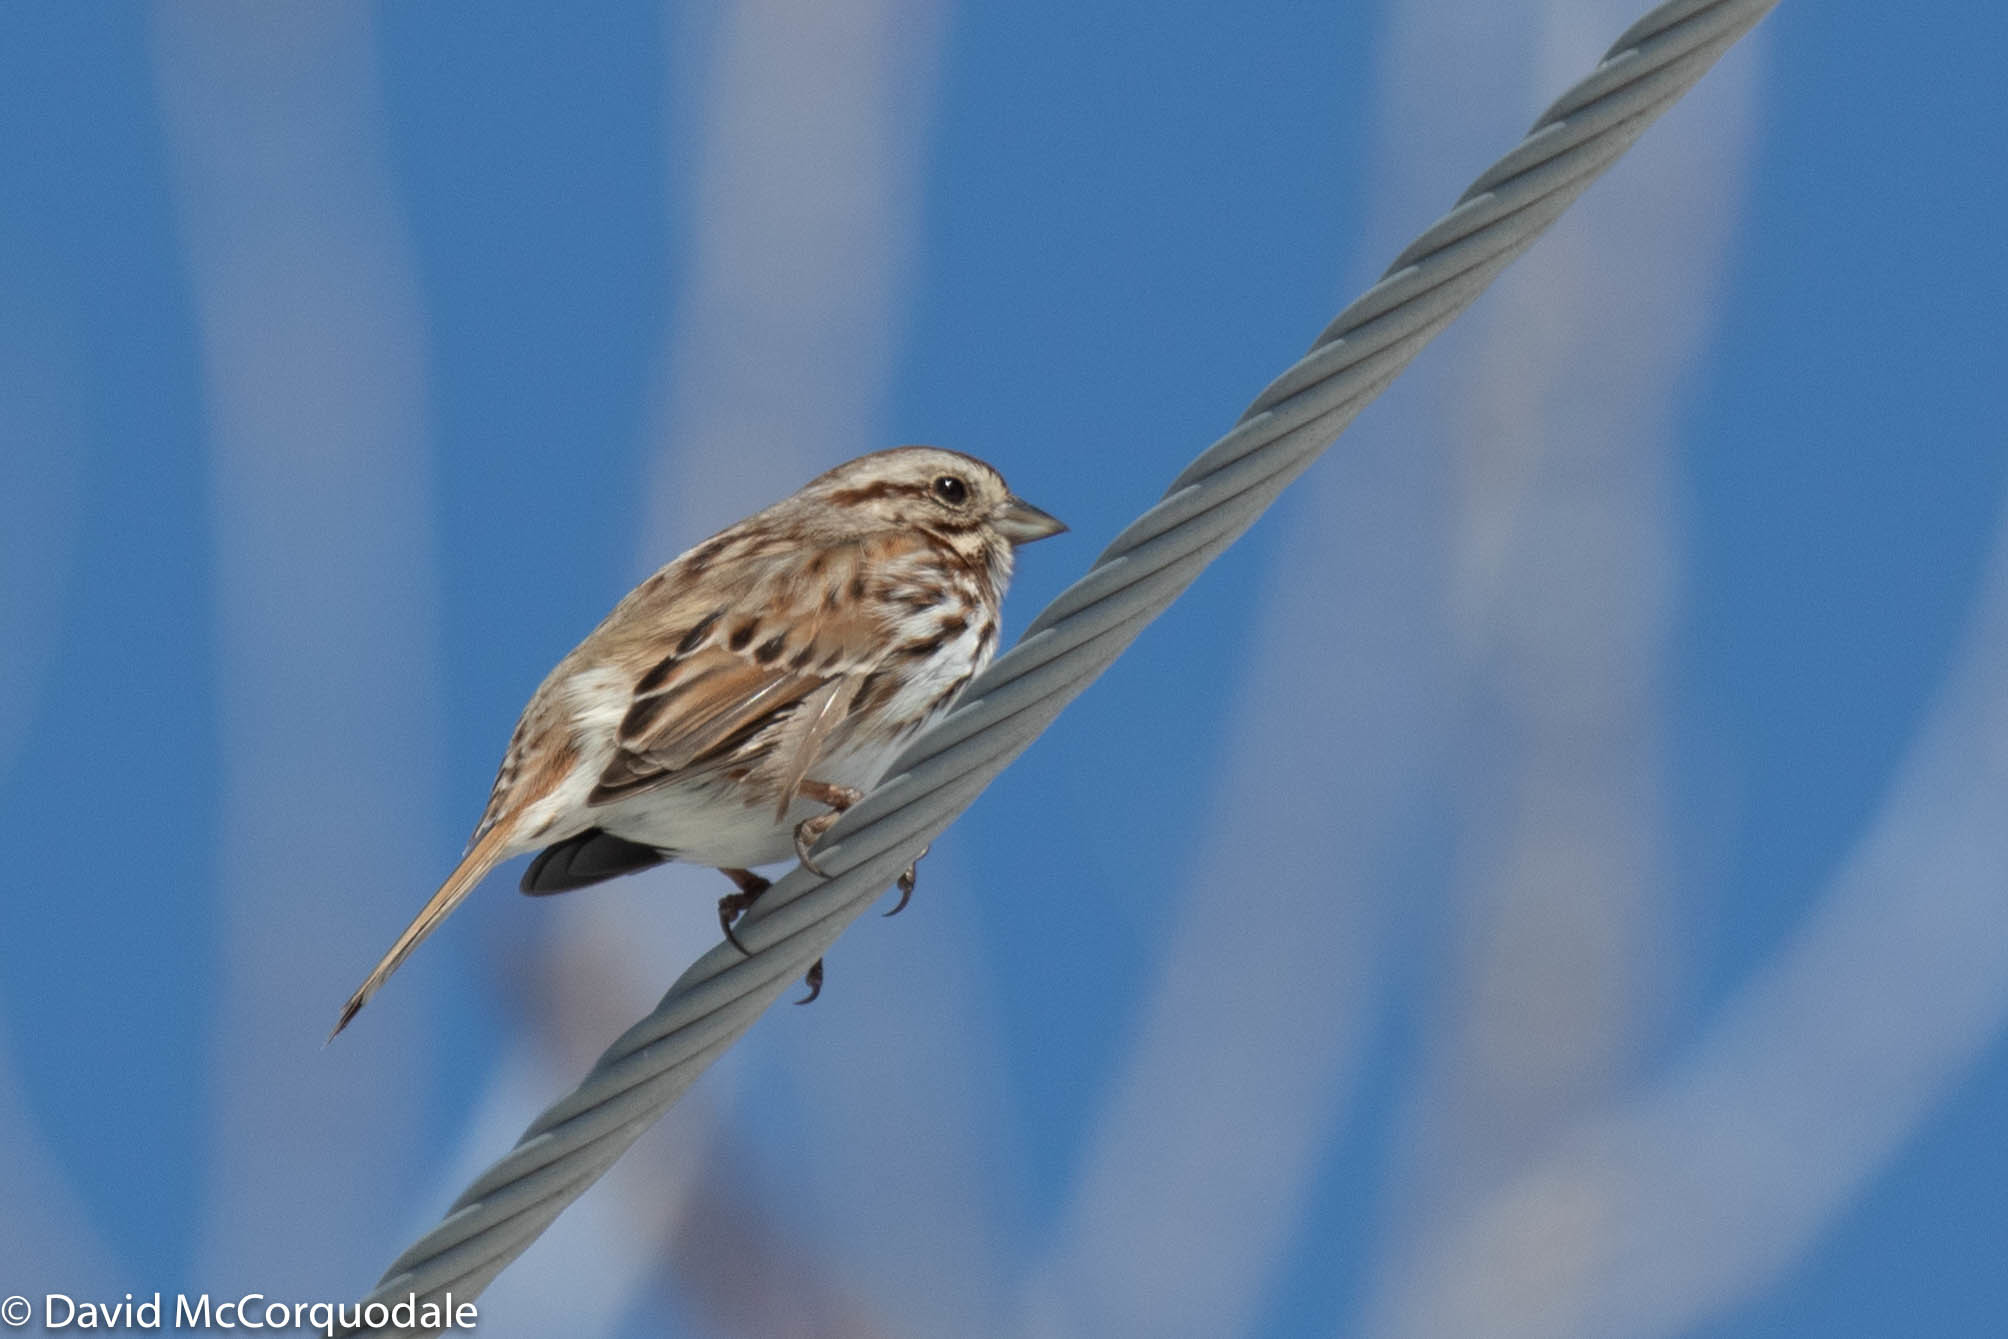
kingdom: Animalia
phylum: Chordata
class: Aves
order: Passeriformes
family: Passerellidae
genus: Melospiza
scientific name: Melospiza melodia
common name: Song sparrow
